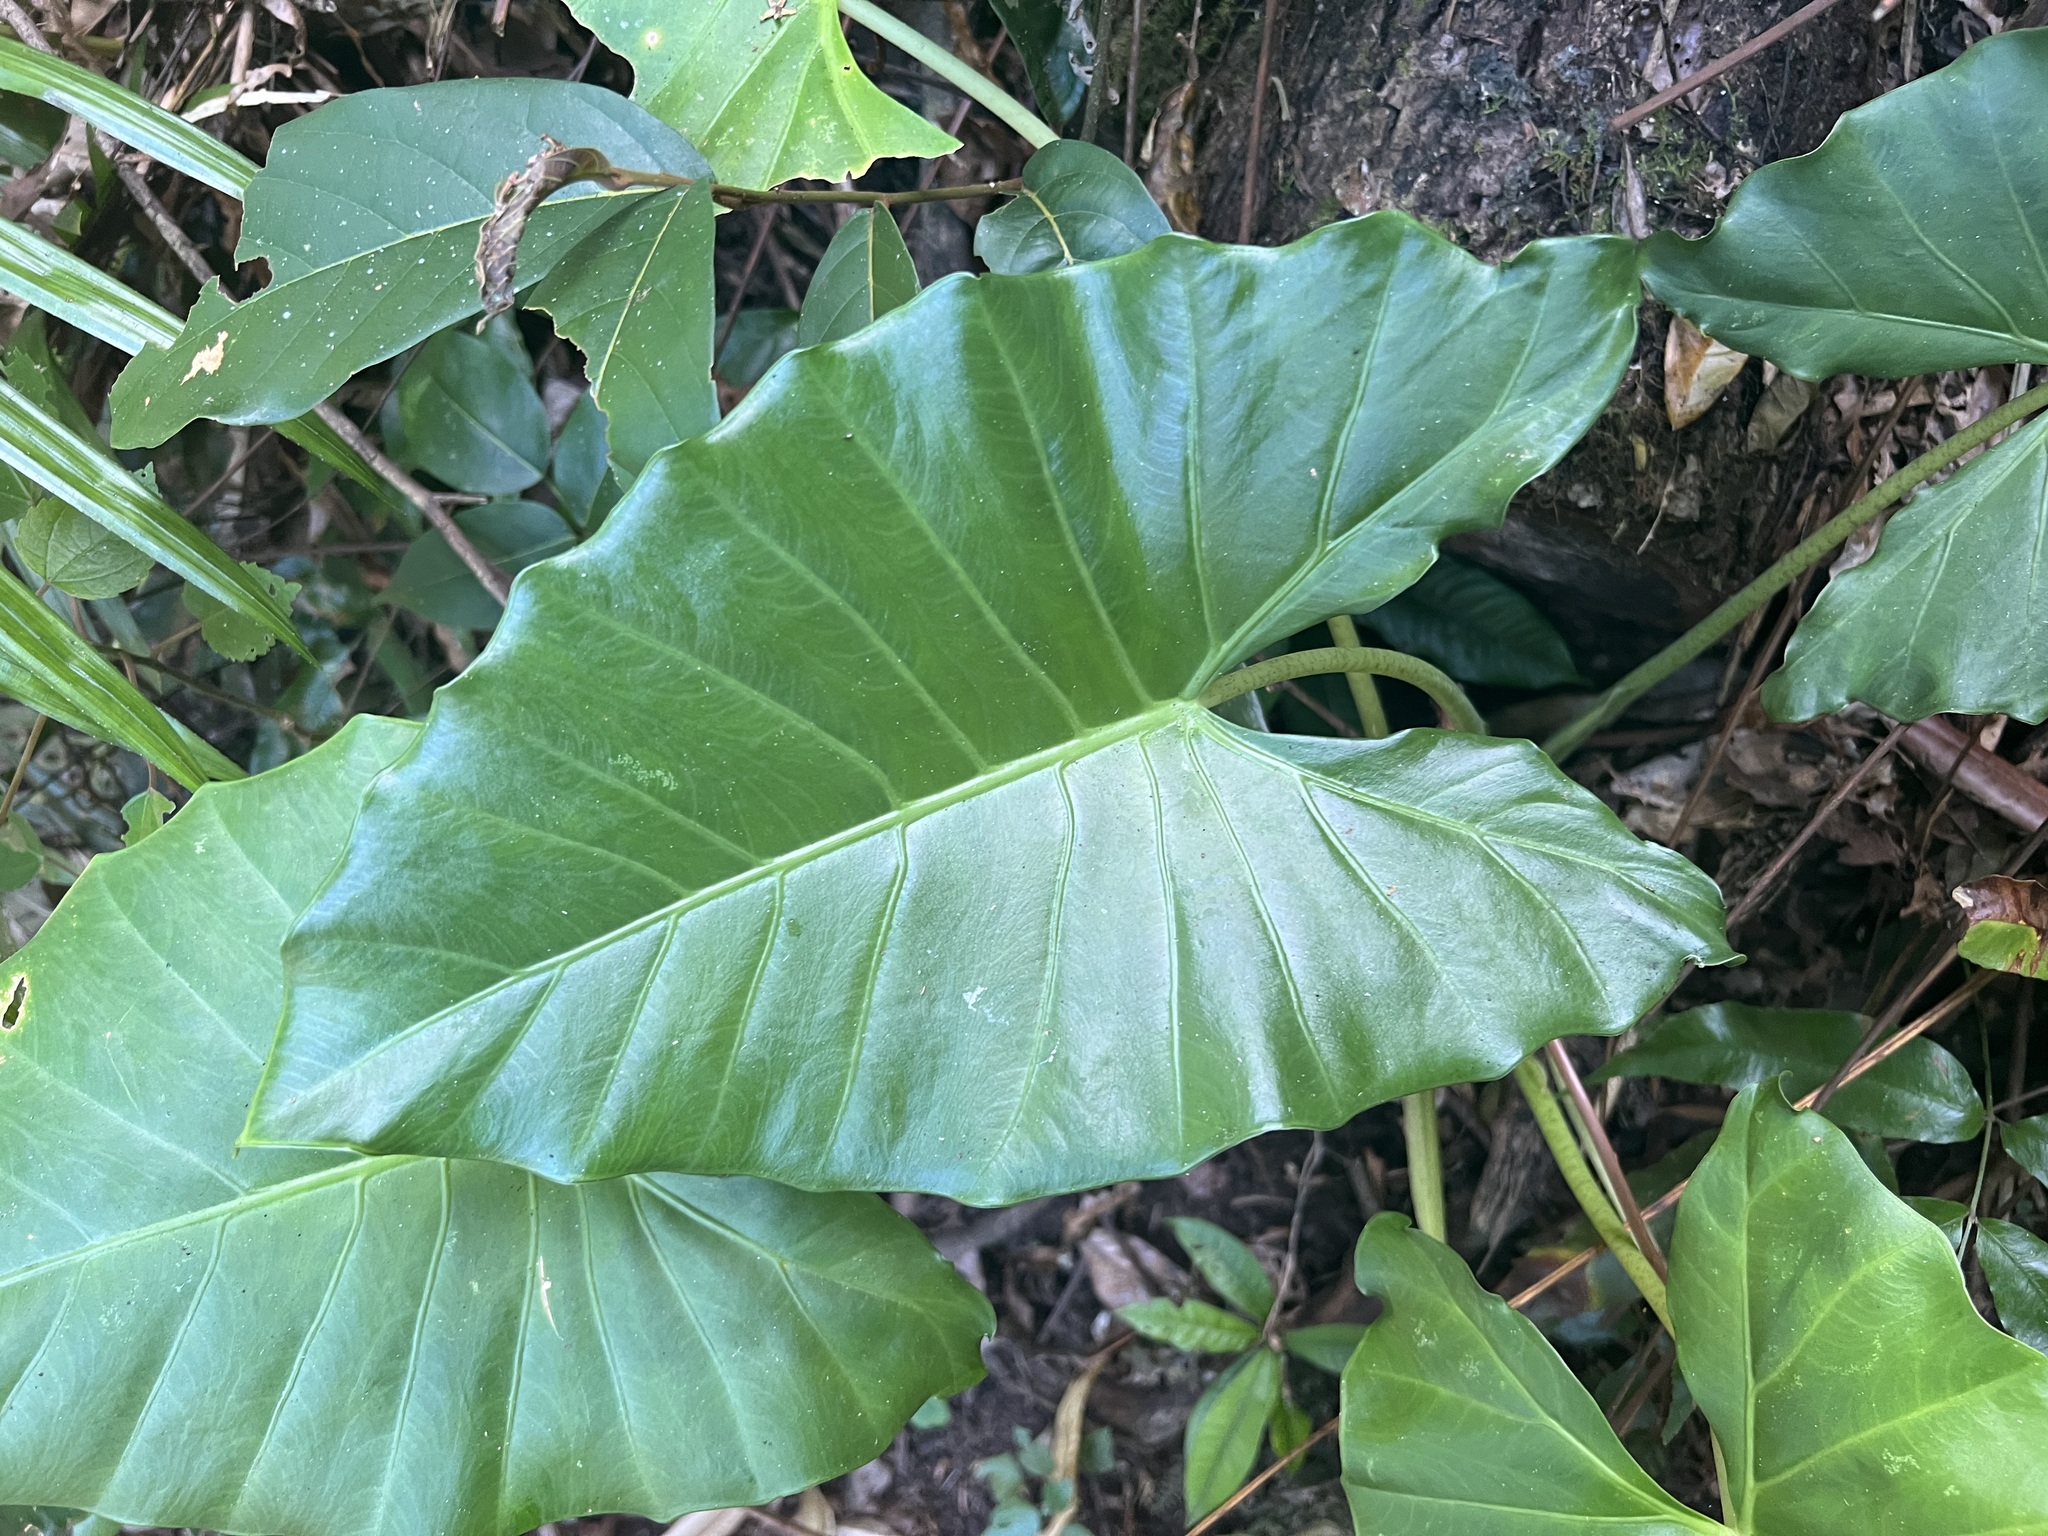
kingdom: Plantae
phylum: Tracheophyta
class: Liliopsida
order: Alismatales
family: Araceae
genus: Alocasia
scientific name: Alocasia brisbanensis
